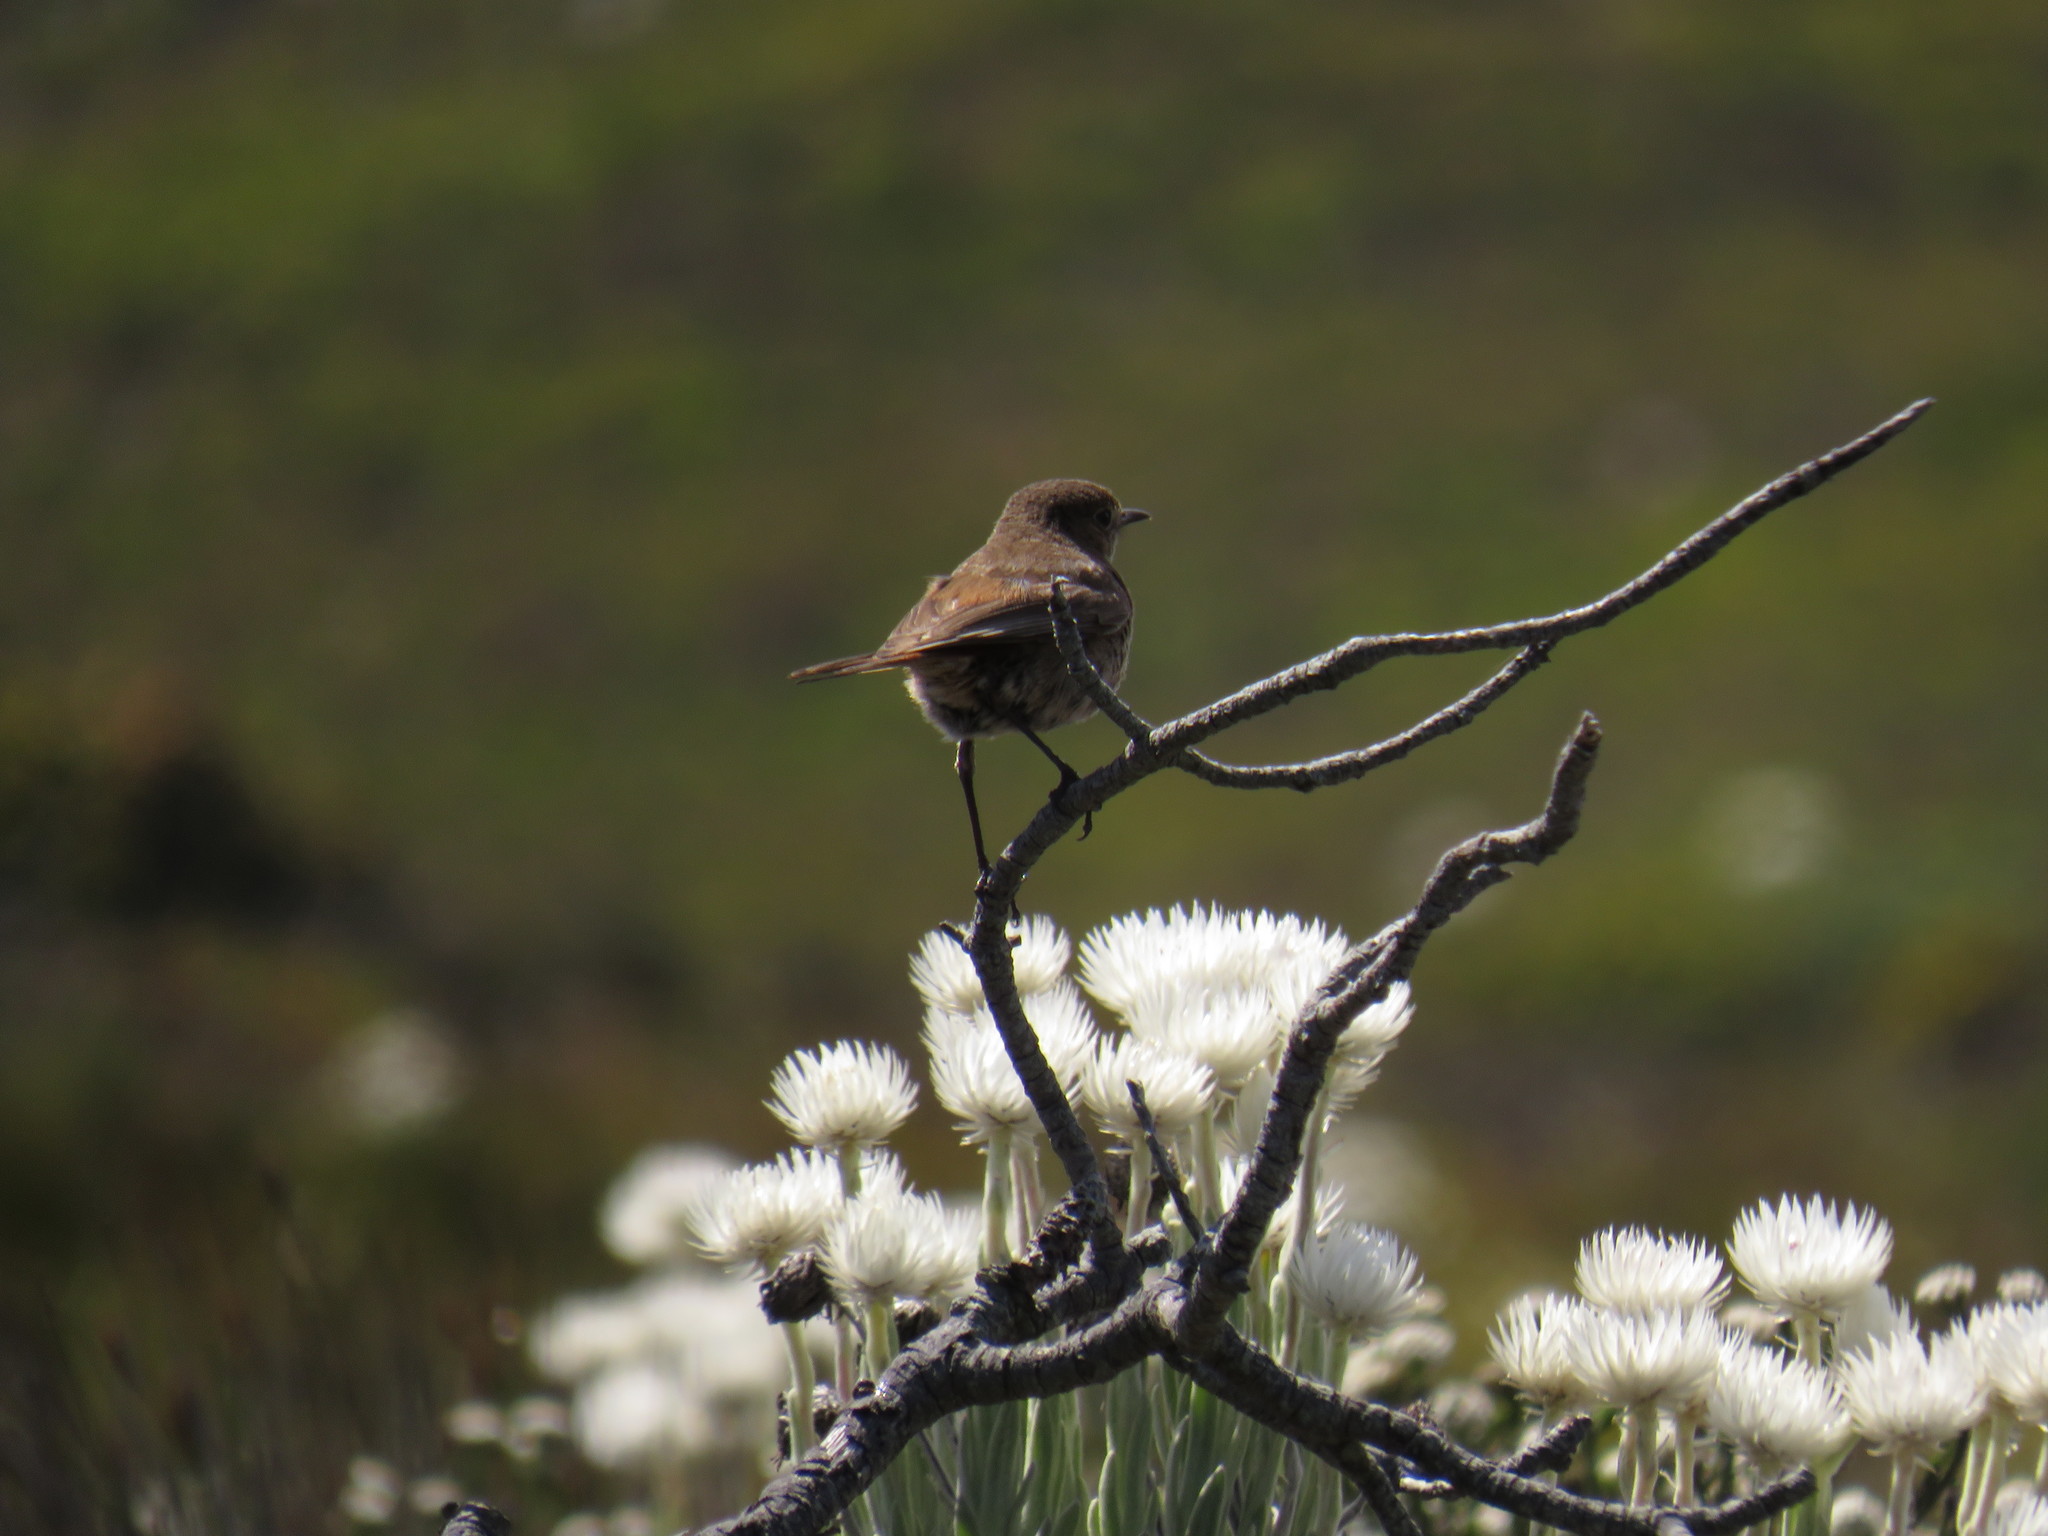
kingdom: Animalia
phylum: Chordata
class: Aves
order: Passeriformes
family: Muscicapidae
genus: Oenanthe
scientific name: Oenanthe familiaris
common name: Familiar chat
